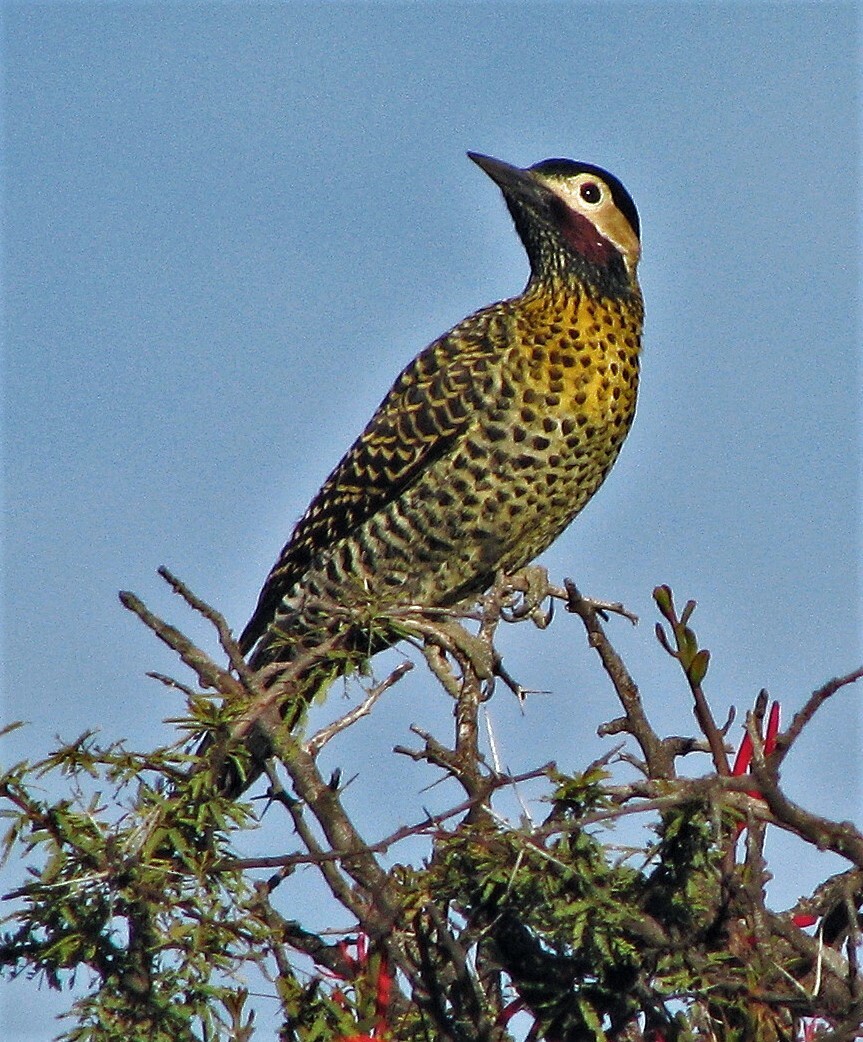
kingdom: Animalia
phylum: Chordata
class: Aves
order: Piciformes
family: Picidae
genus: Colaptes
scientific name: Colaptes melanochloros
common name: Green-barred woodpecker
